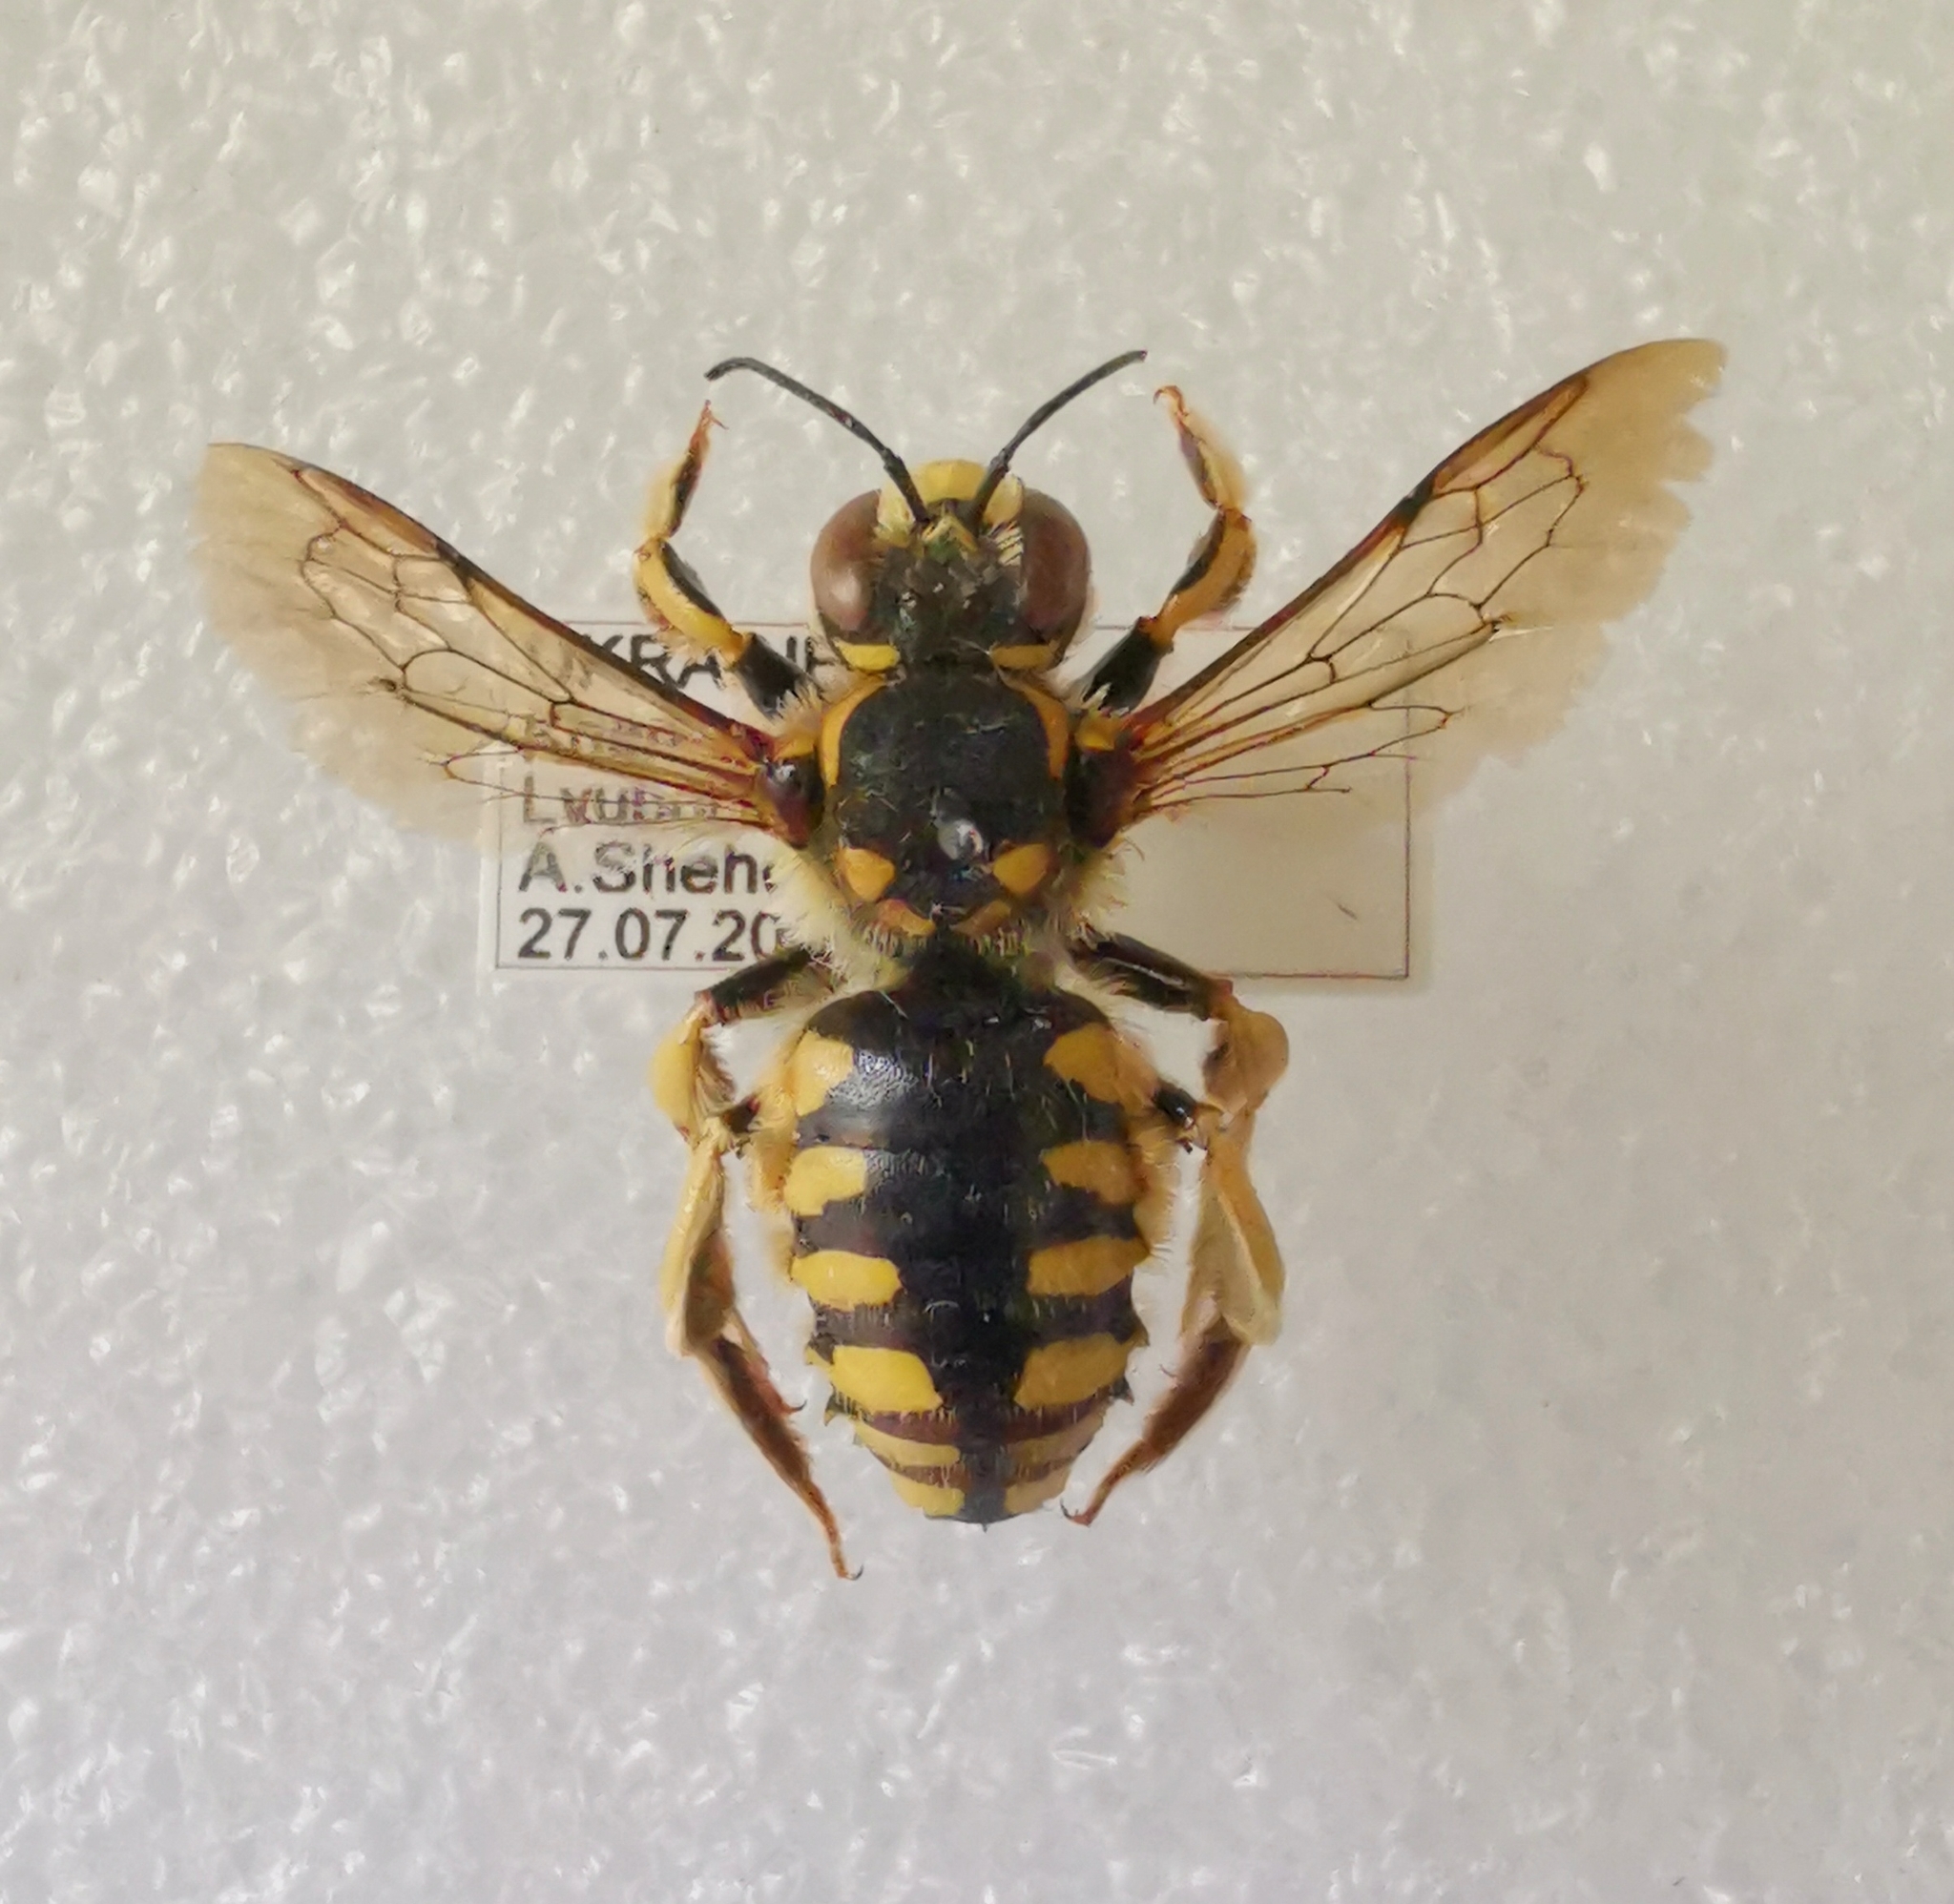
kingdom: Animalia
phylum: Arthropoda
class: Insecta
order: Hymenoptera
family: Megachilidae
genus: Anthidium
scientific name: Anthidium florentinum
